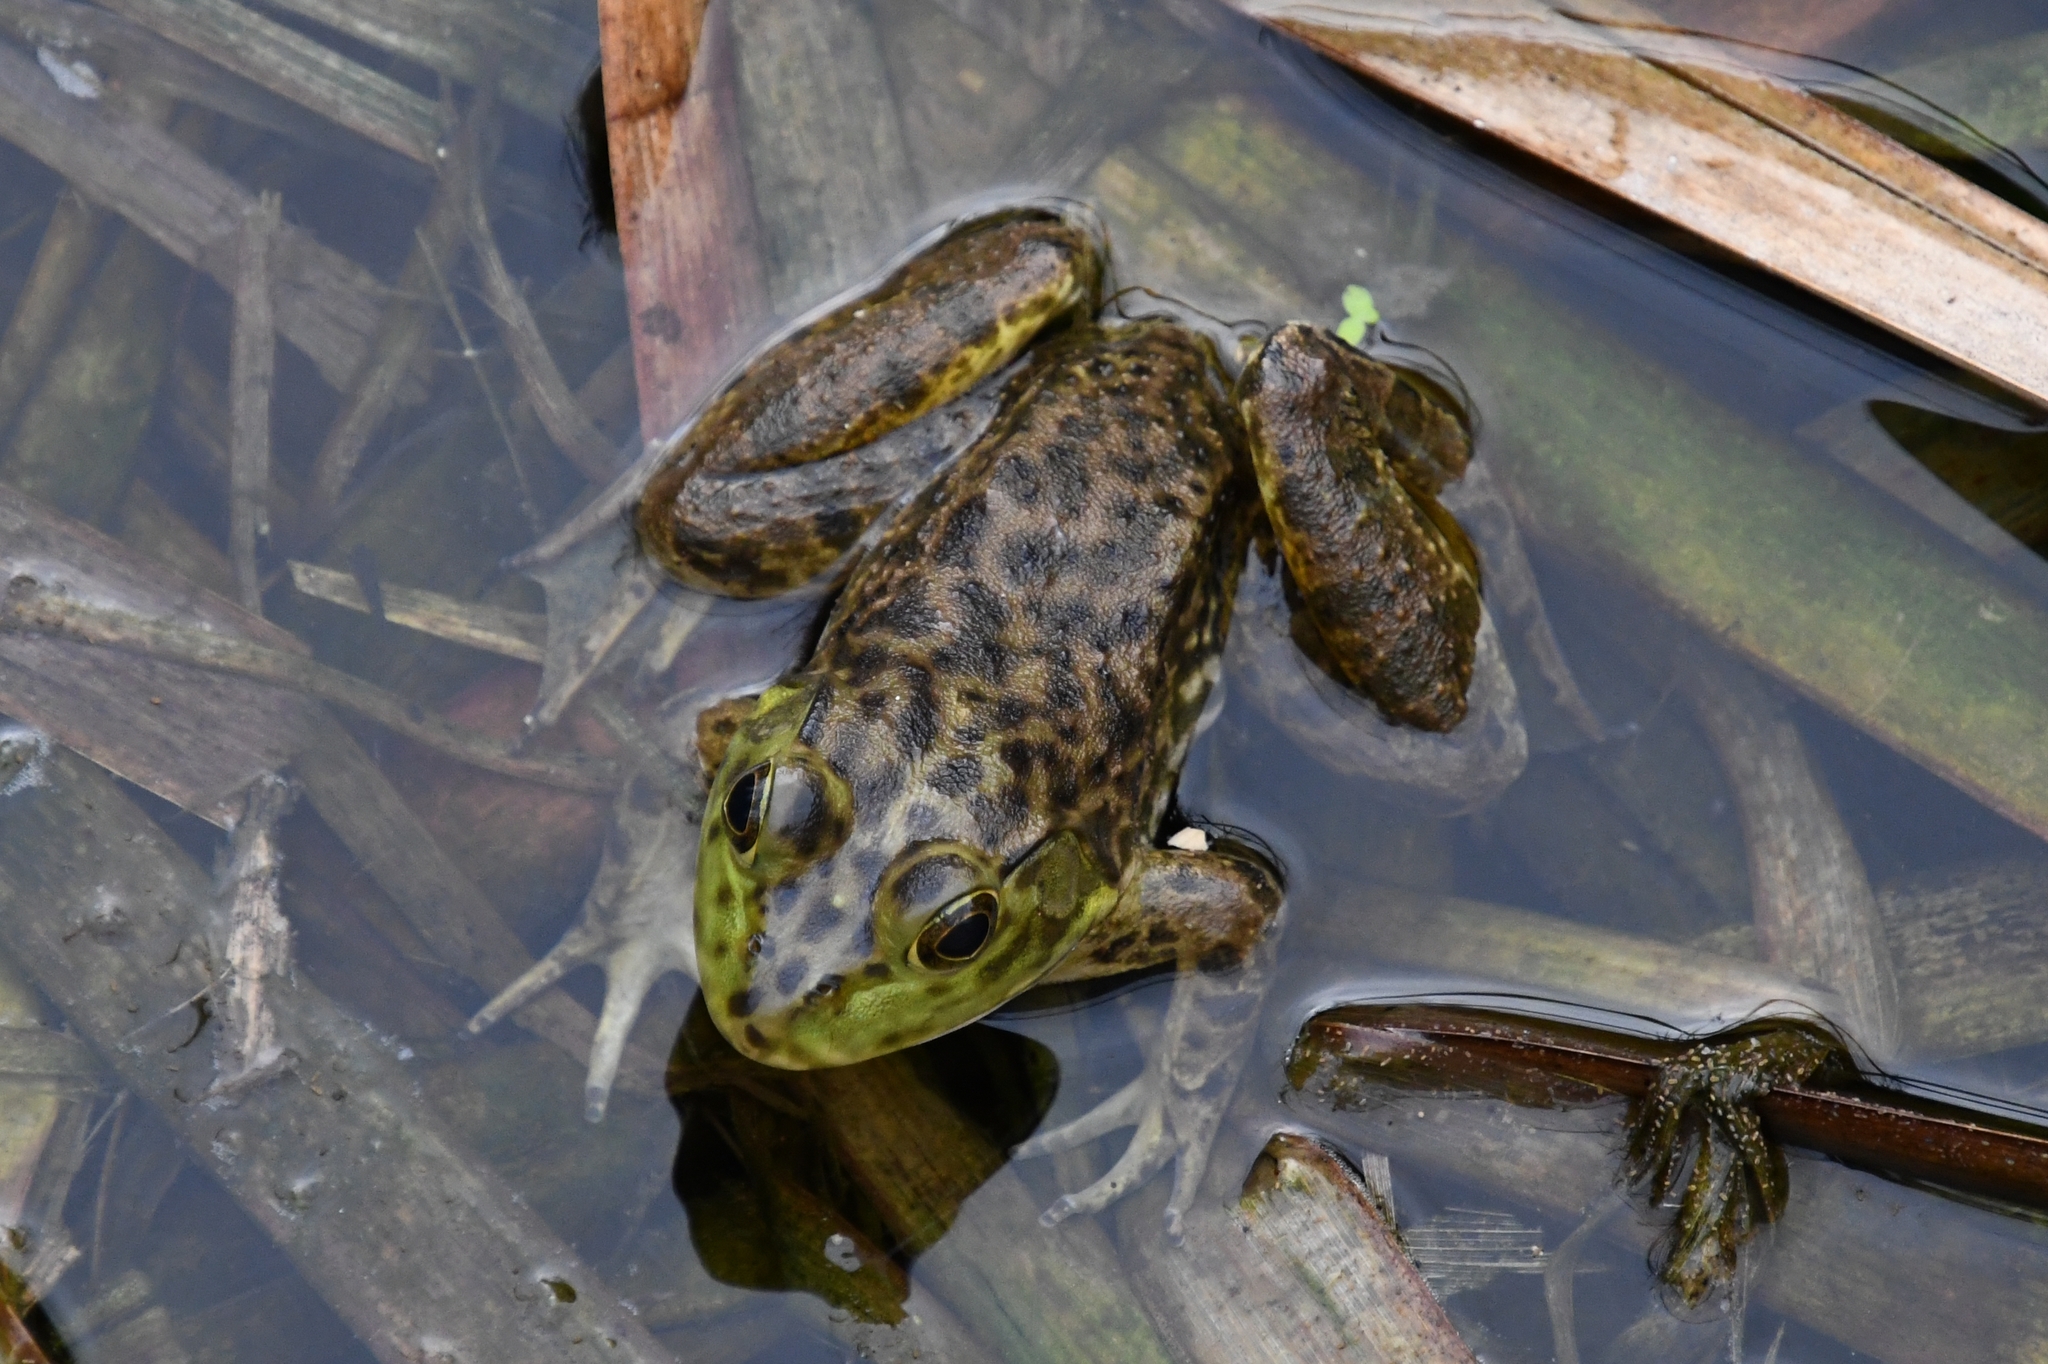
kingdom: Animalia
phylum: Chordata
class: Amphibia
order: Anura
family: Ranidae
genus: Lithobates
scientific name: Lithobates catesbeianus
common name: American bullfrog
